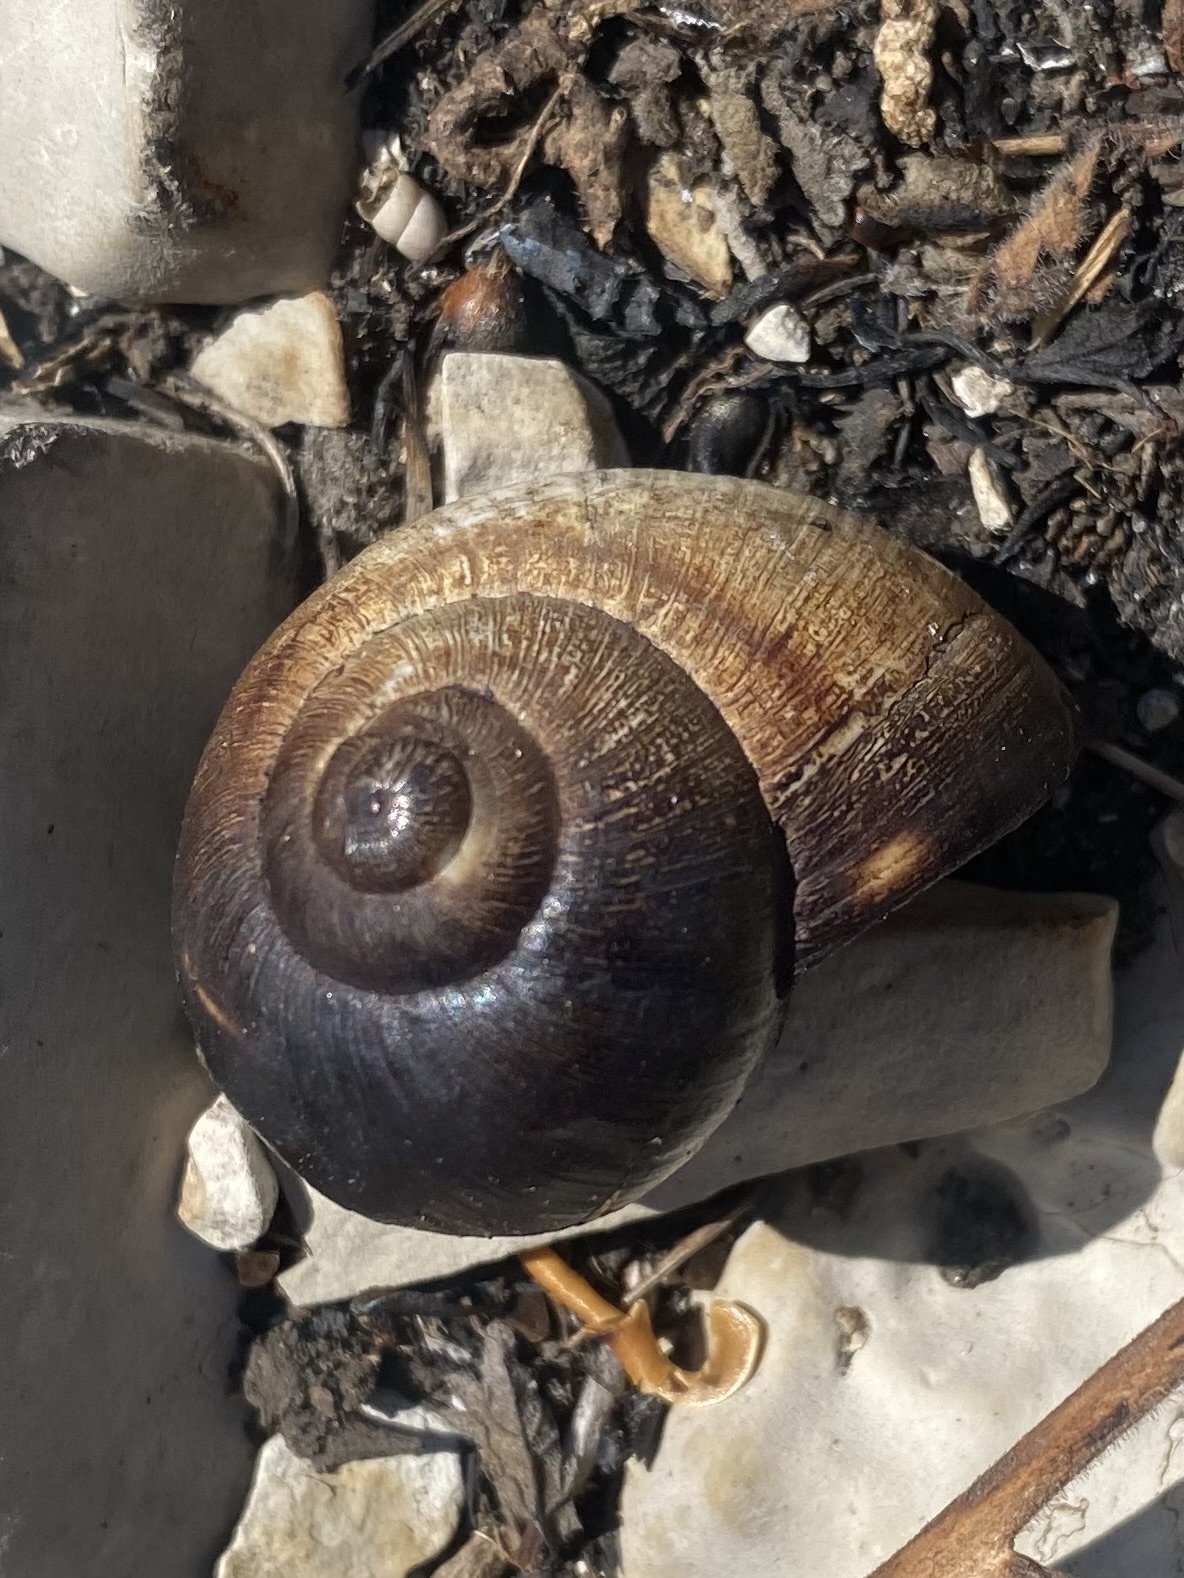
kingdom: Animalia
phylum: Mollusca
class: Gastropoda
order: Stylommatophora
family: Helicidae
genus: Helix
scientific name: Helix albescens
